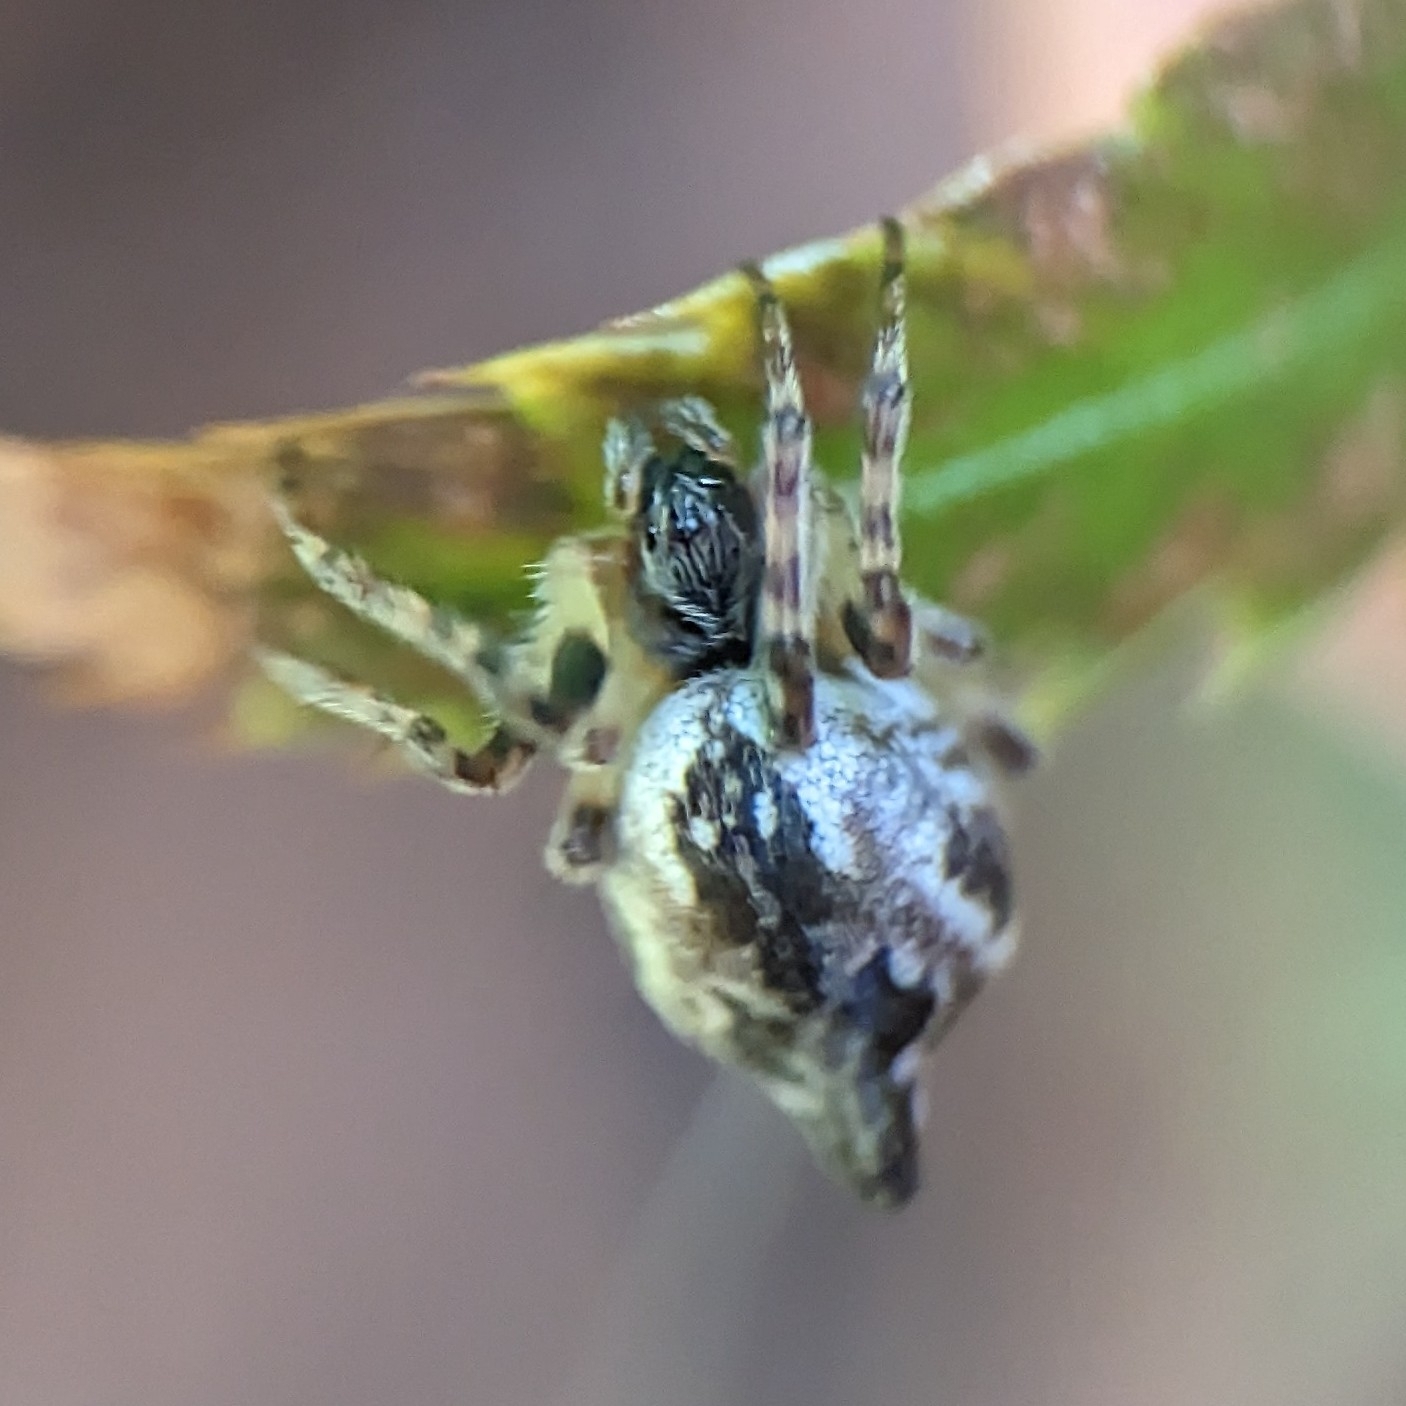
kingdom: Animalia
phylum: Arthropoda
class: Arachnida
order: Araneae
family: Araneidae
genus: Cyclosa
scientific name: Cyclosa conica
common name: Conical trashline orbweaver
